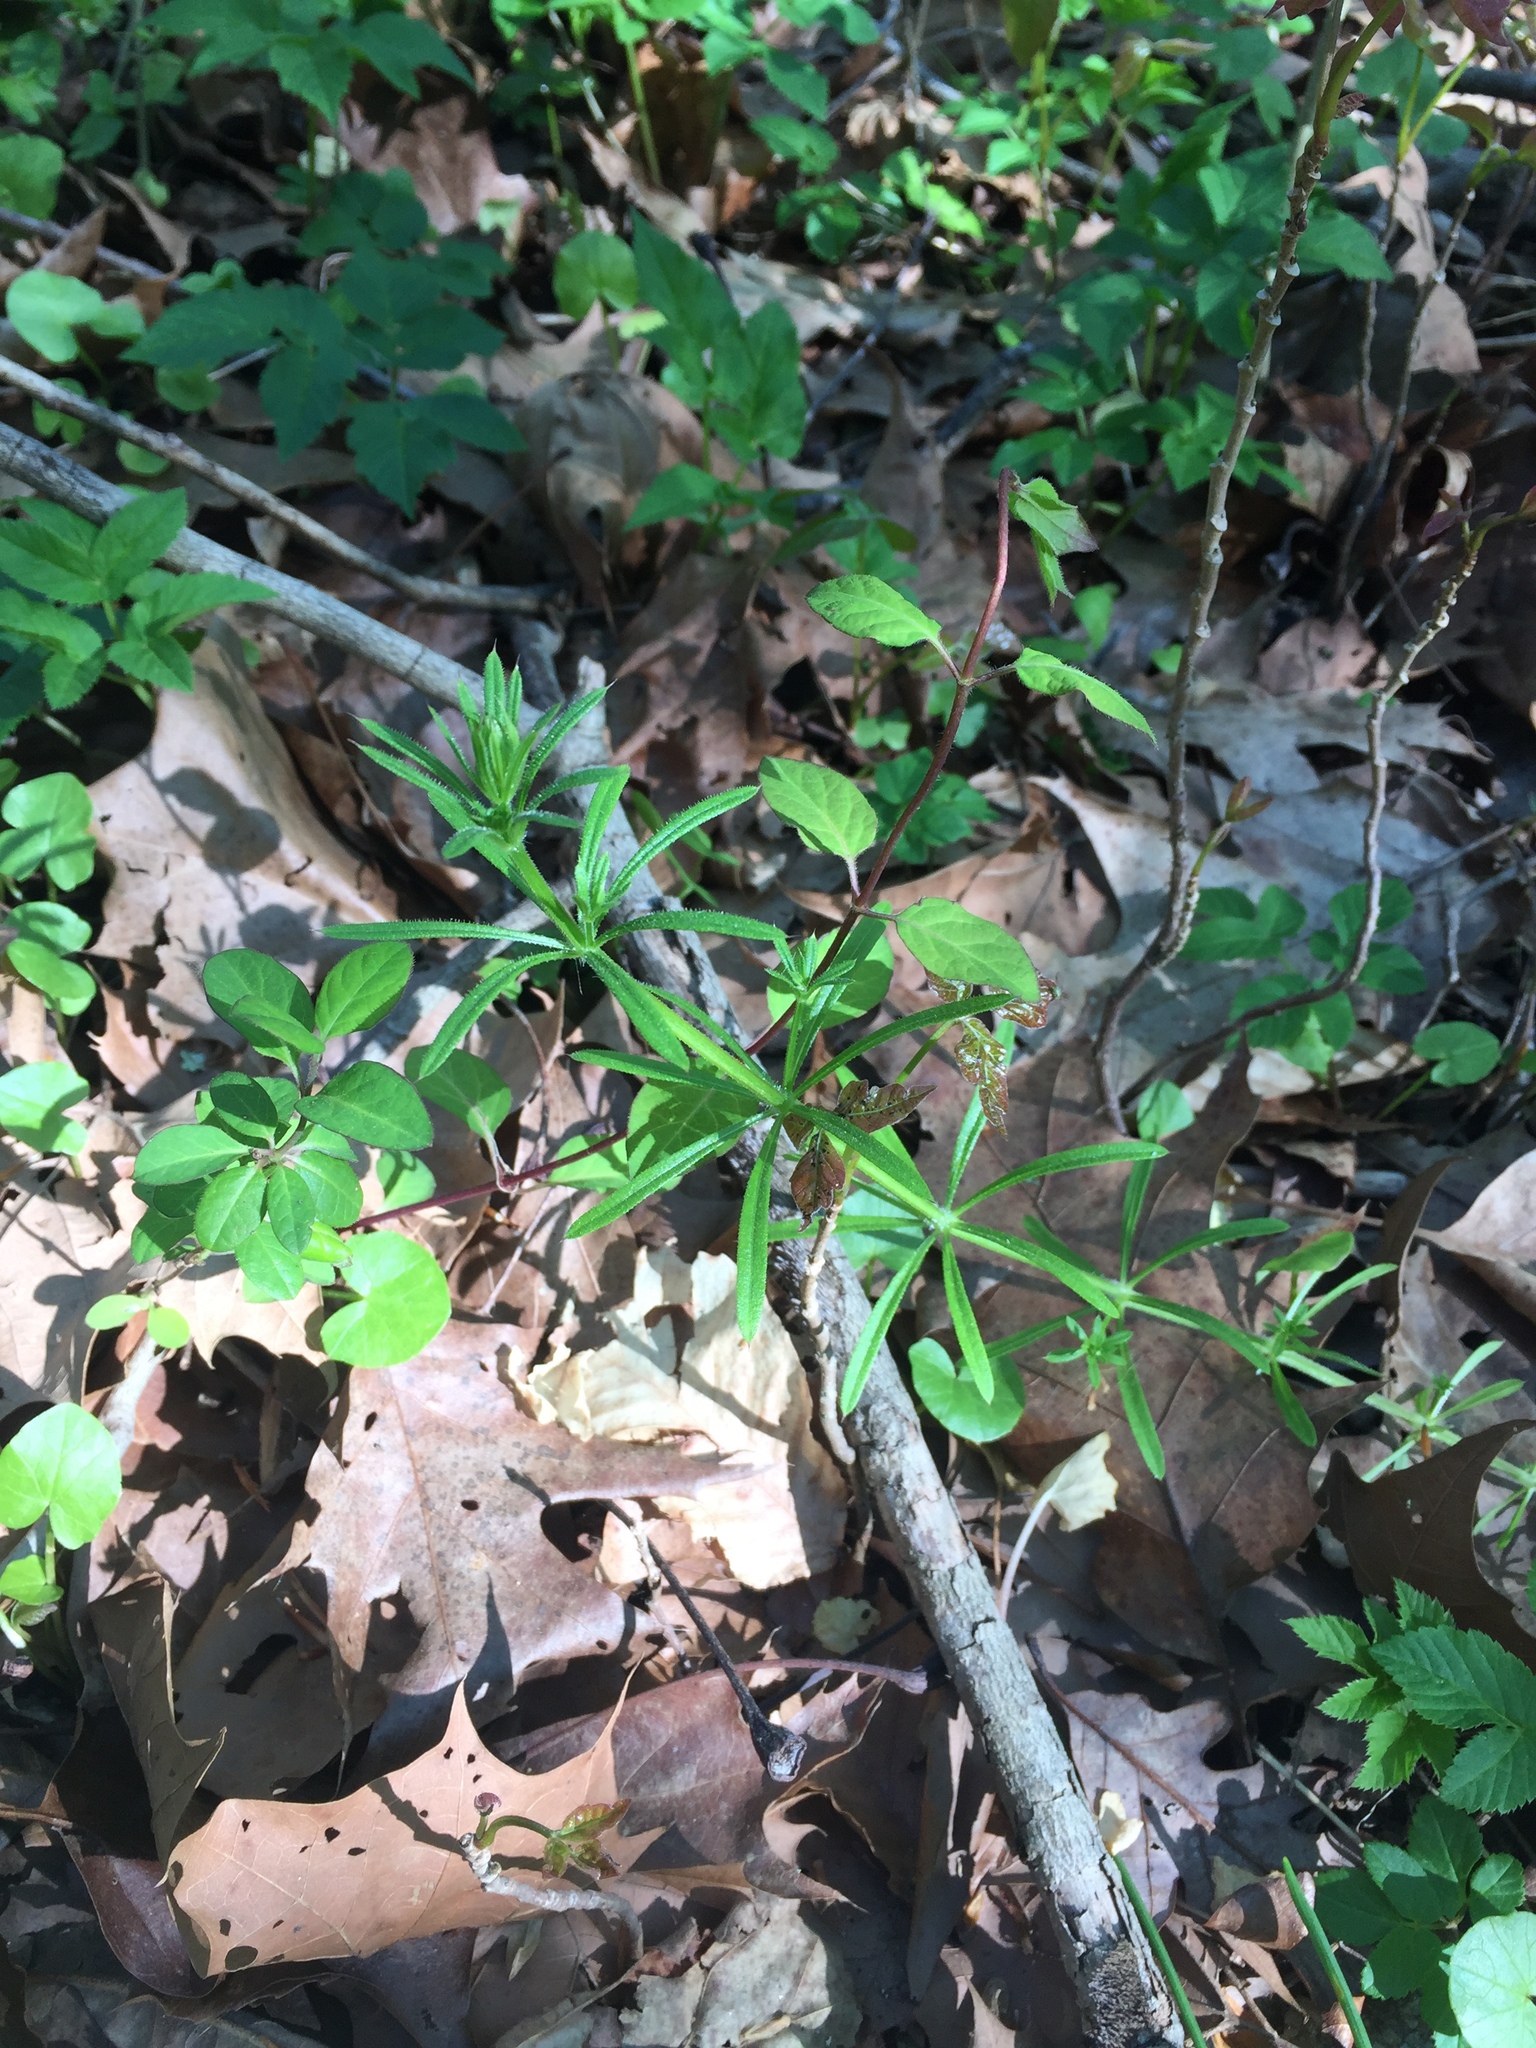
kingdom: Plantae
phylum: Tracheophyta
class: Magnoliopsida
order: Gentianales
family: Rubiaceae
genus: Galium
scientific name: Galium aparine
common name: Cleavers
